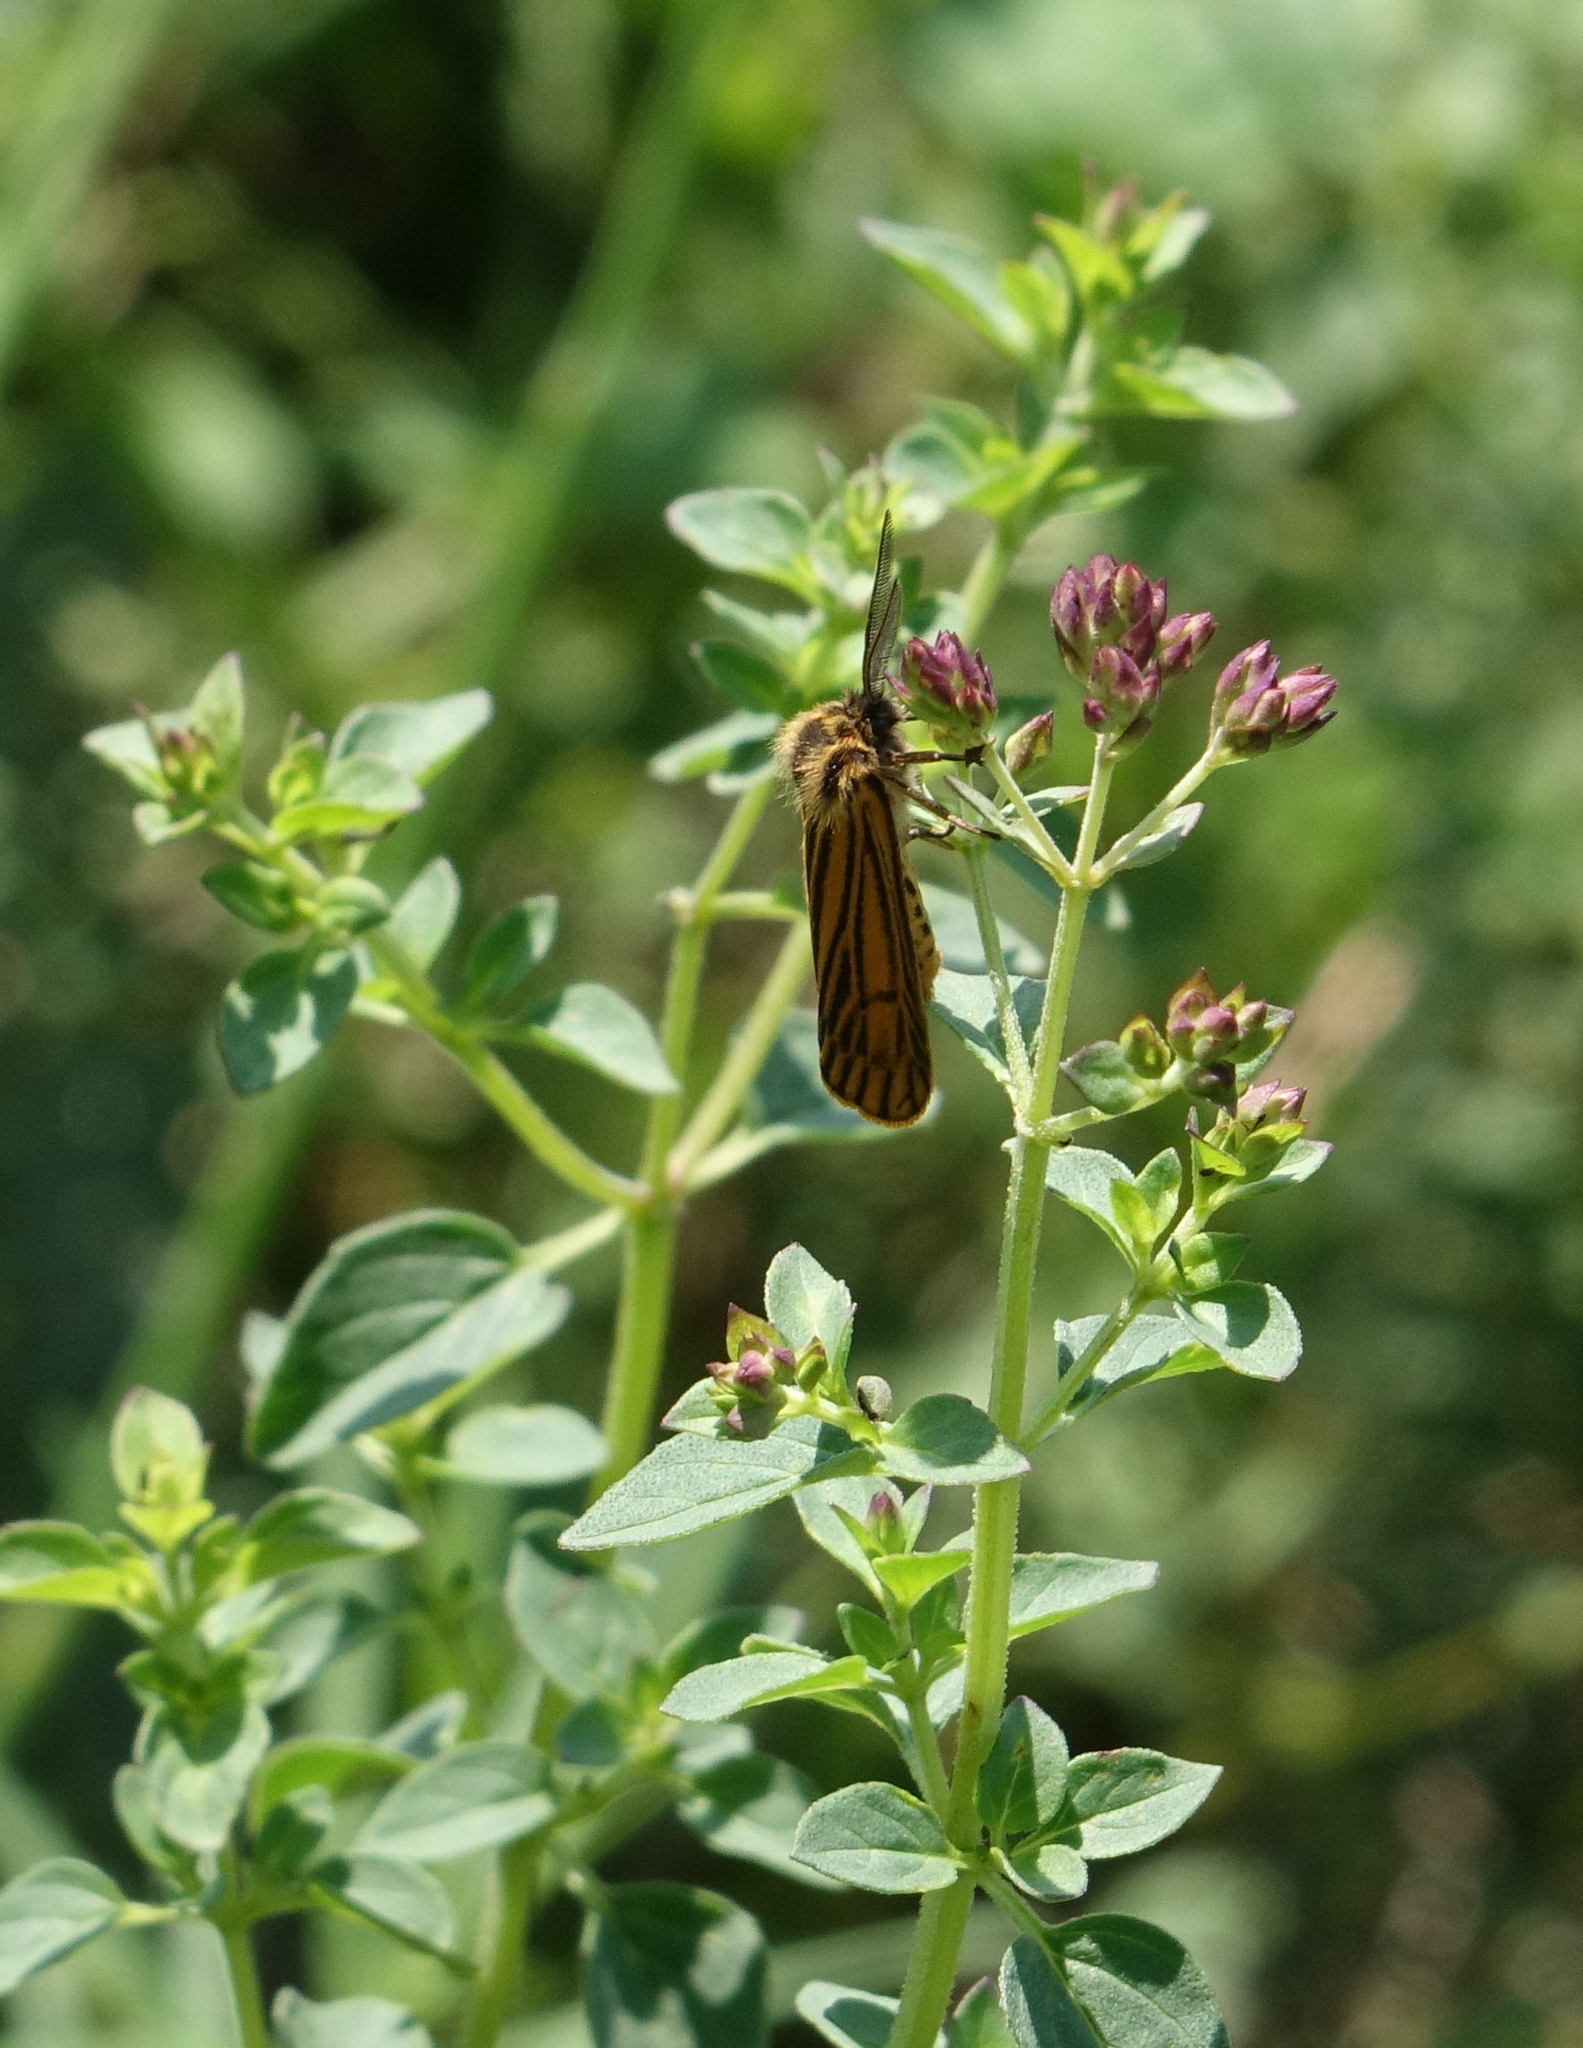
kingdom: Animalia
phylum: Arthropoda
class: Insecta
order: Lepidoptera
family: Erebidae
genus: Coscinia
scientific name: Coscinia Spiris striata
